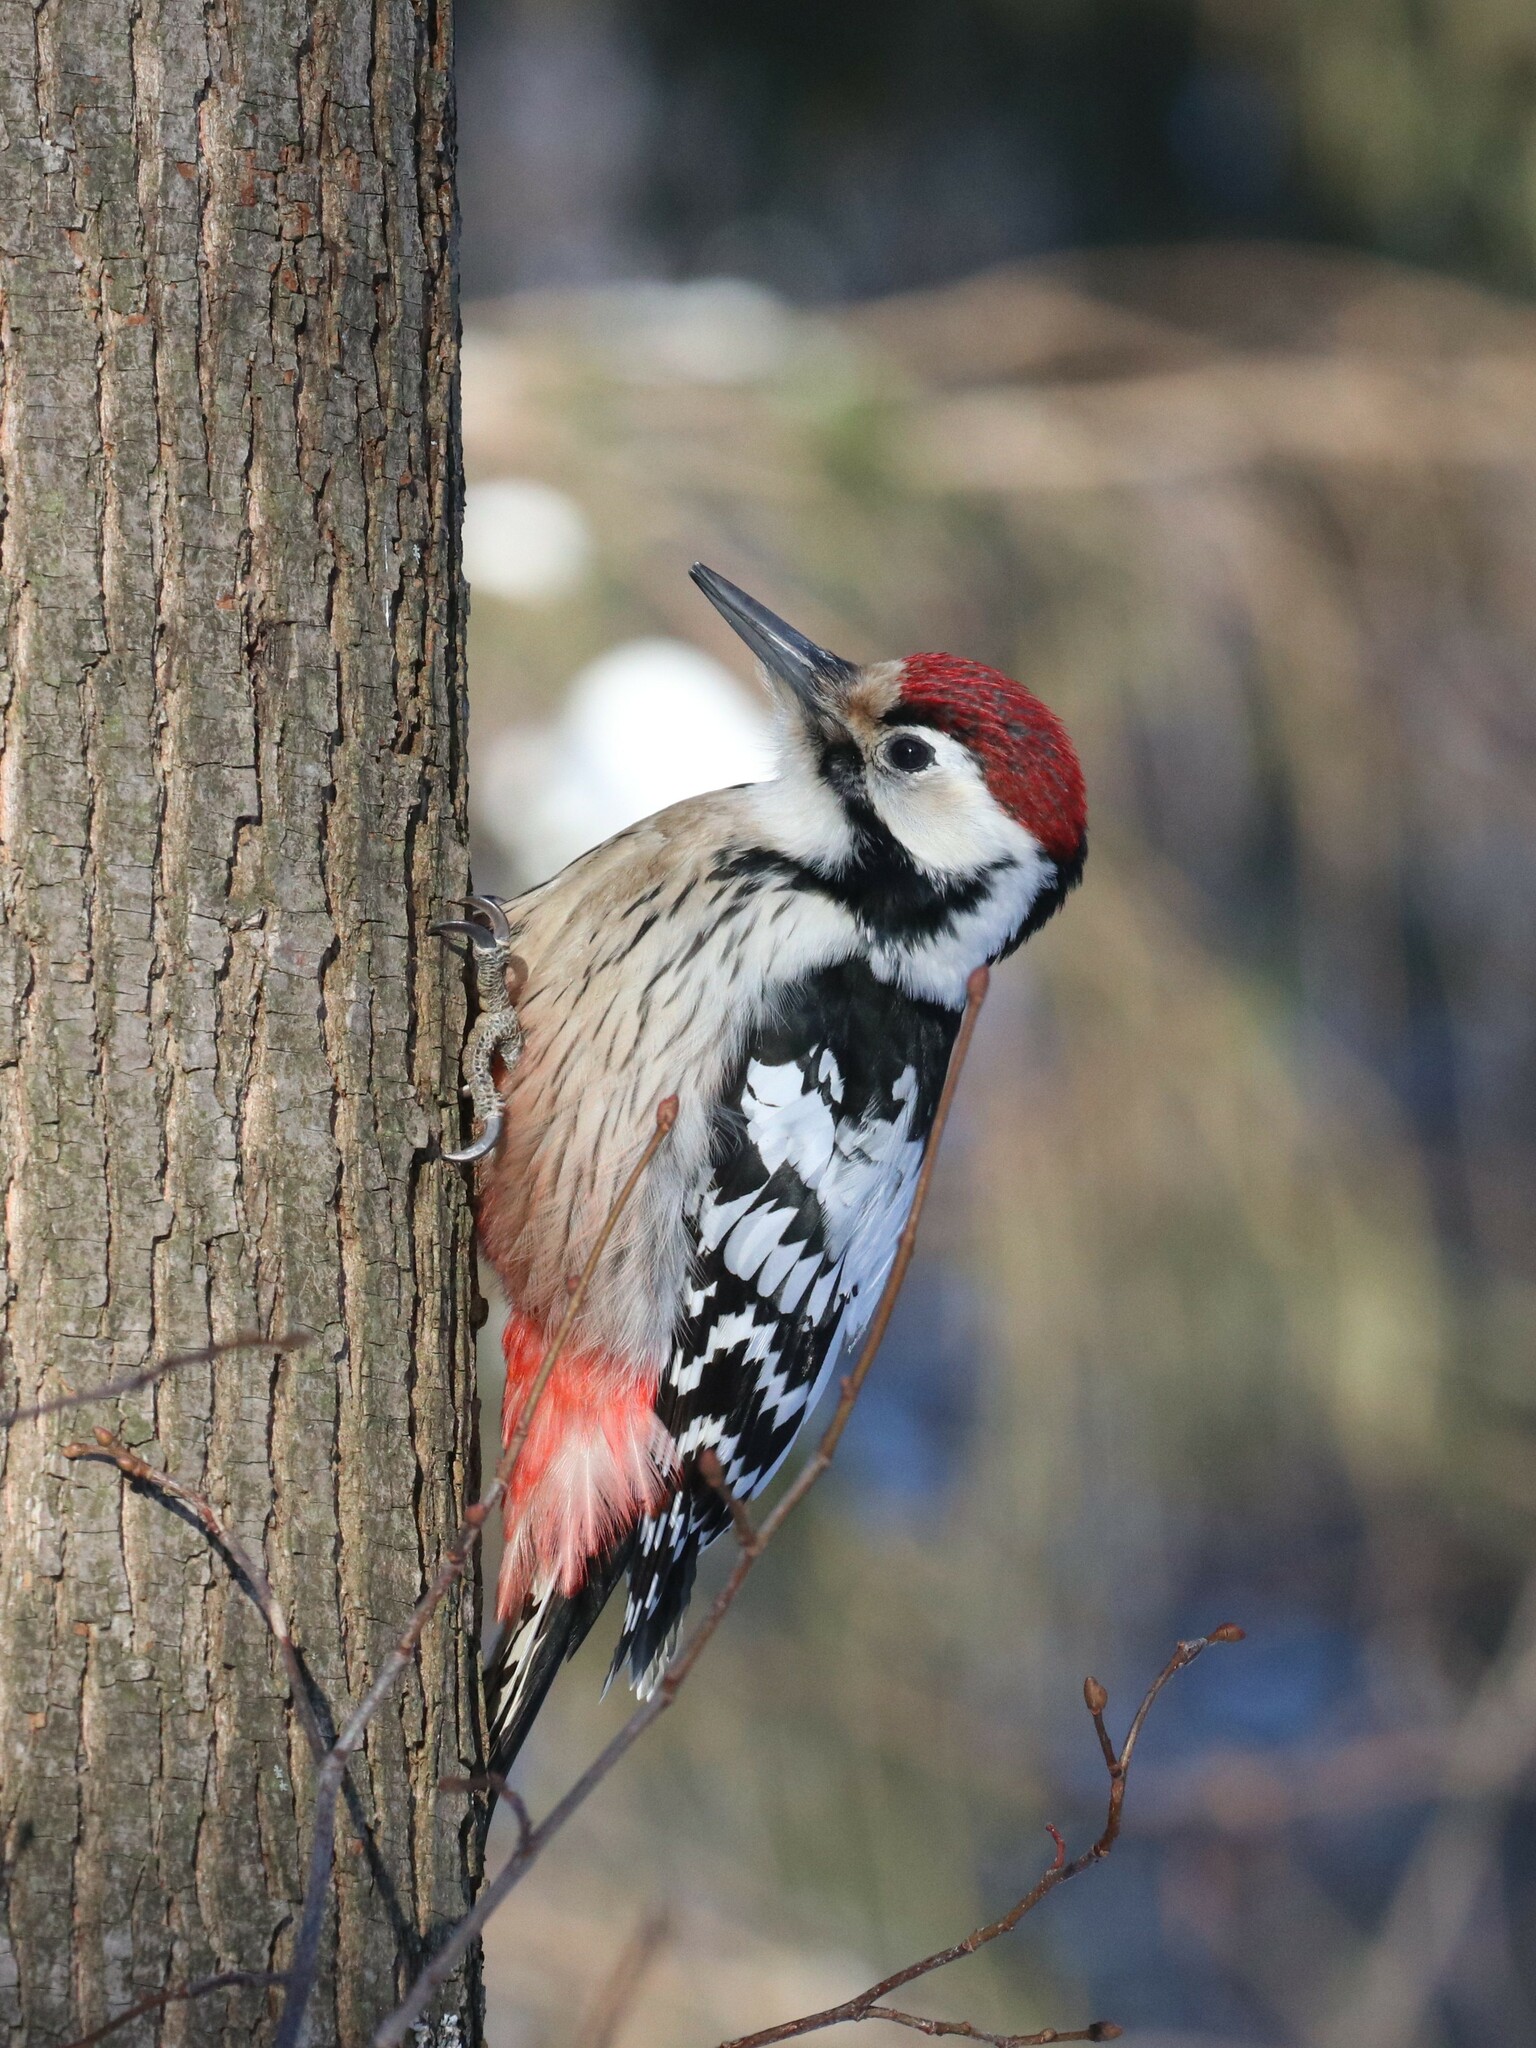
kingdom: Animalia
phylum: Chordata
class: Aves
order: Piciformes
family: Picidae
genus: Dendrocopos
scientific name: Dendrocopos leucotos
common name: White-backed woodpecker
